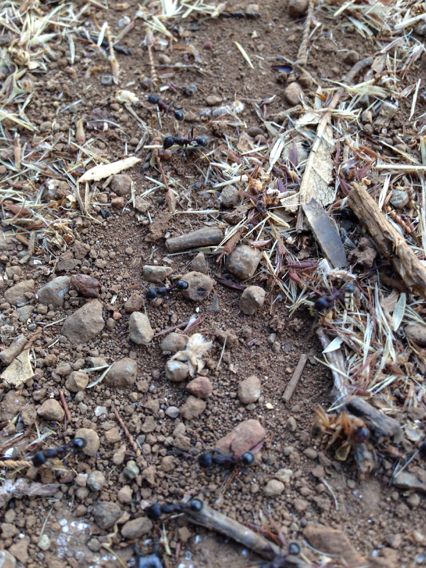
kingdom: Animalia
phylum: Arthropoda
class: Insecta
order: Hymenoptera
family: Formicidae
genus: Veromessor
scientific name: Veromessor andrei
